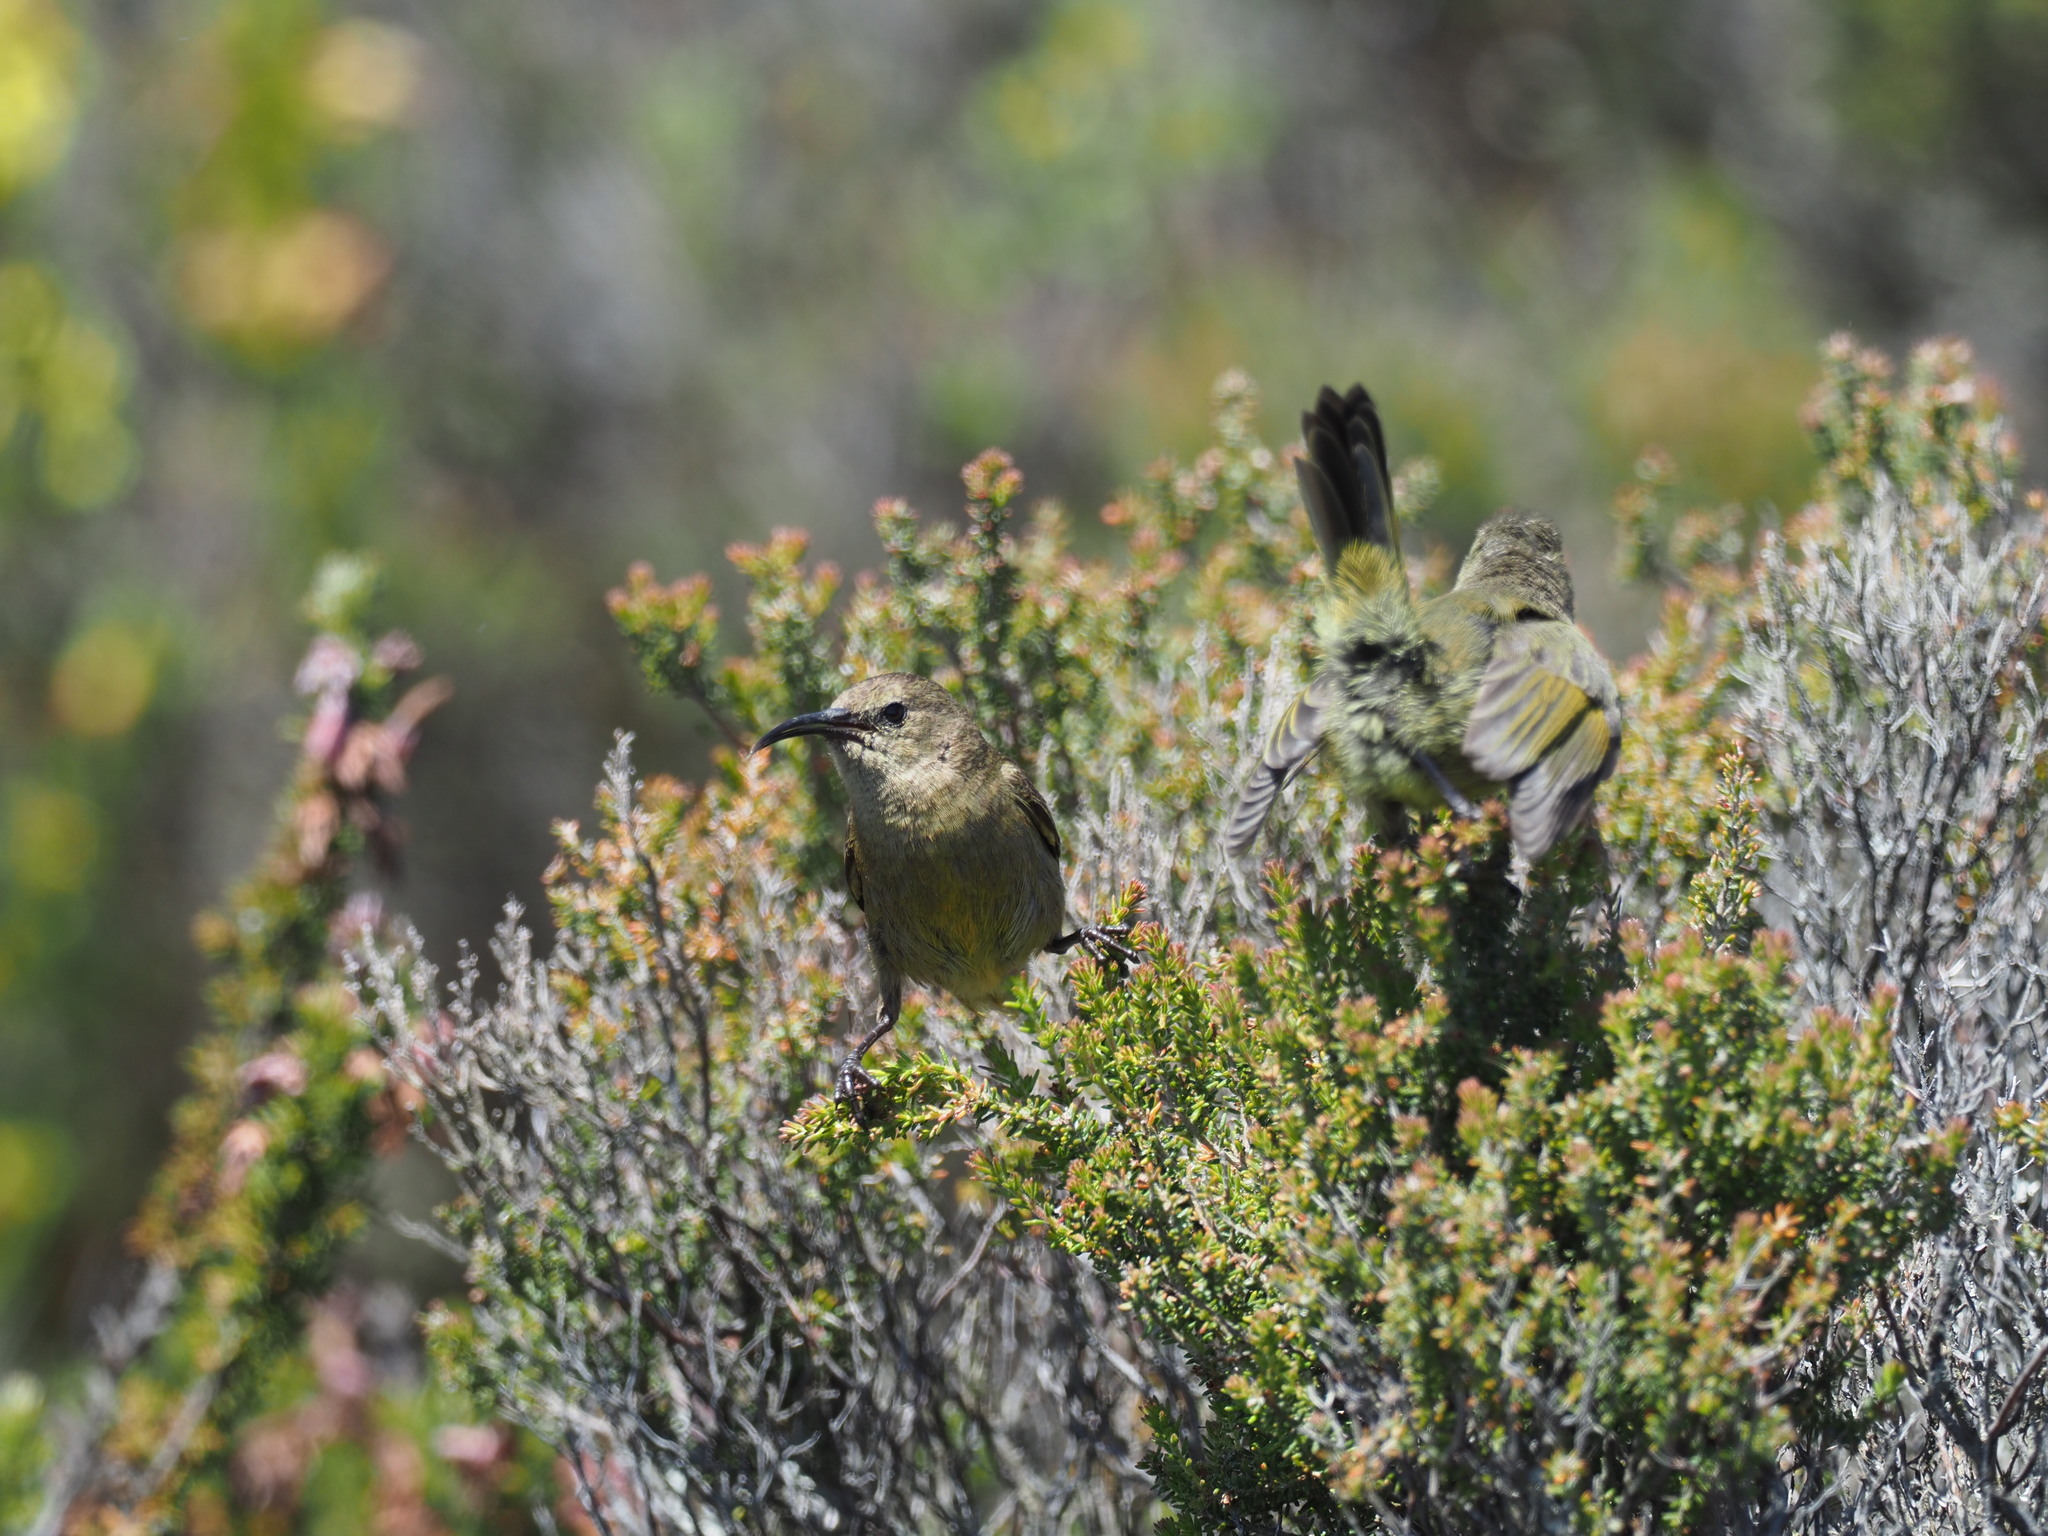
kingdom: Animalia
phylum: Chordata
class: Aves
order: Passeriformes
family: Nectariniidae
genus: Anthobaphes
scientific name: Anthobaphes violacea
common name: Orange-breasted sunbird
